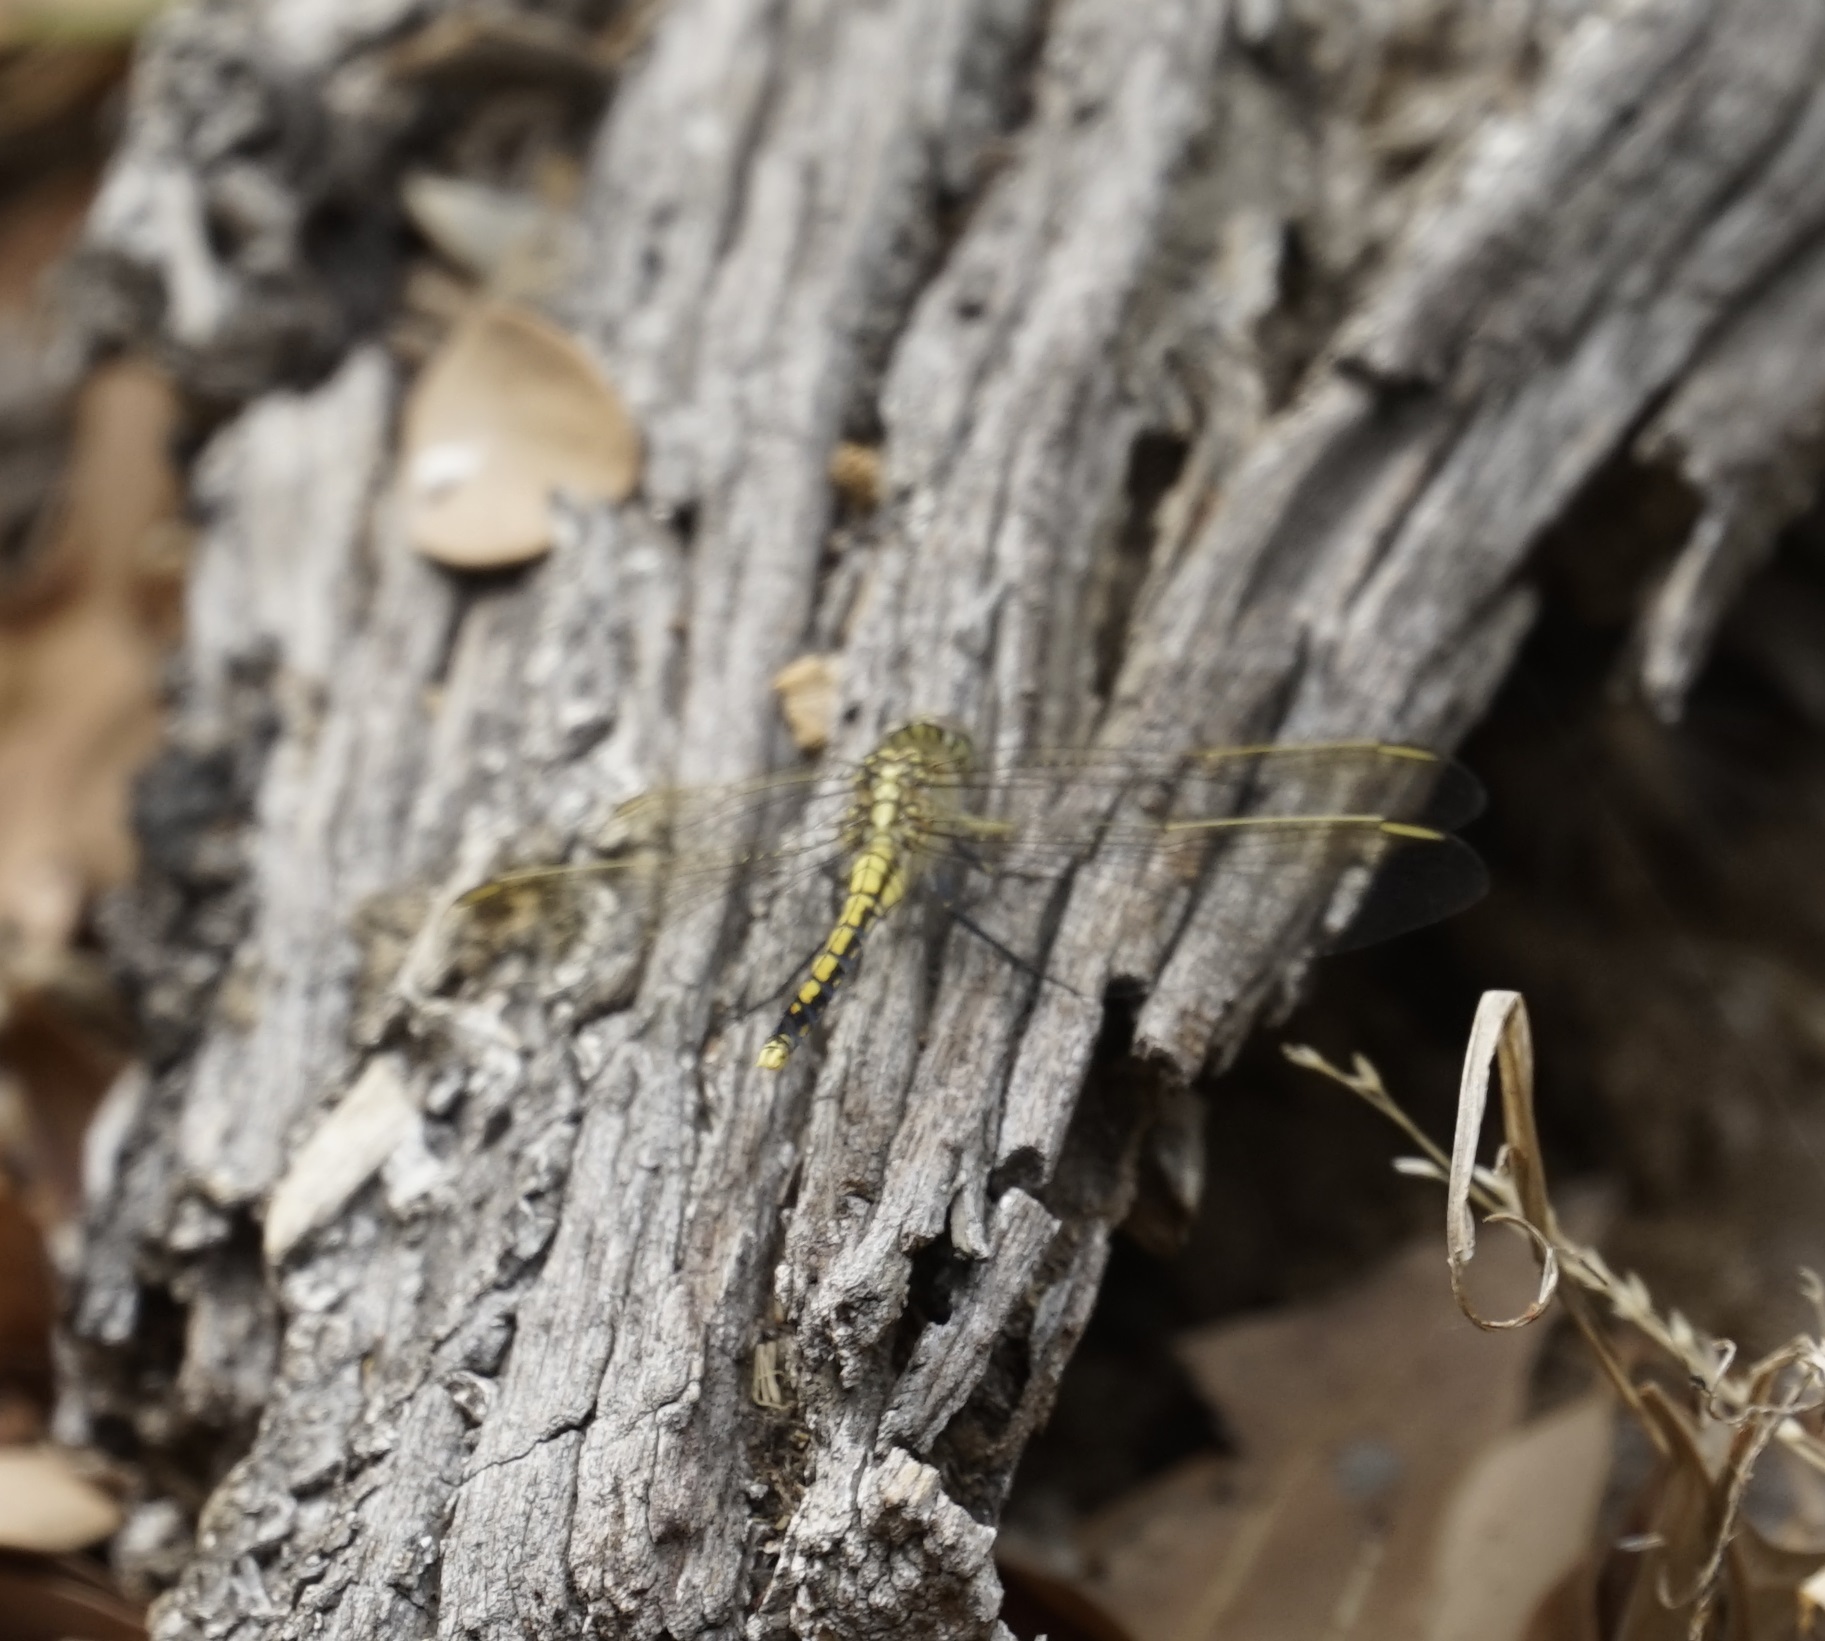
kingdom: Animalia
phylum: Arthropoda
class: Insecta
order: Odonata
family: Libellulidae
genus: Orthetrum
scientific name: Orthetrum caledonicum
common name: Blue skimmer
